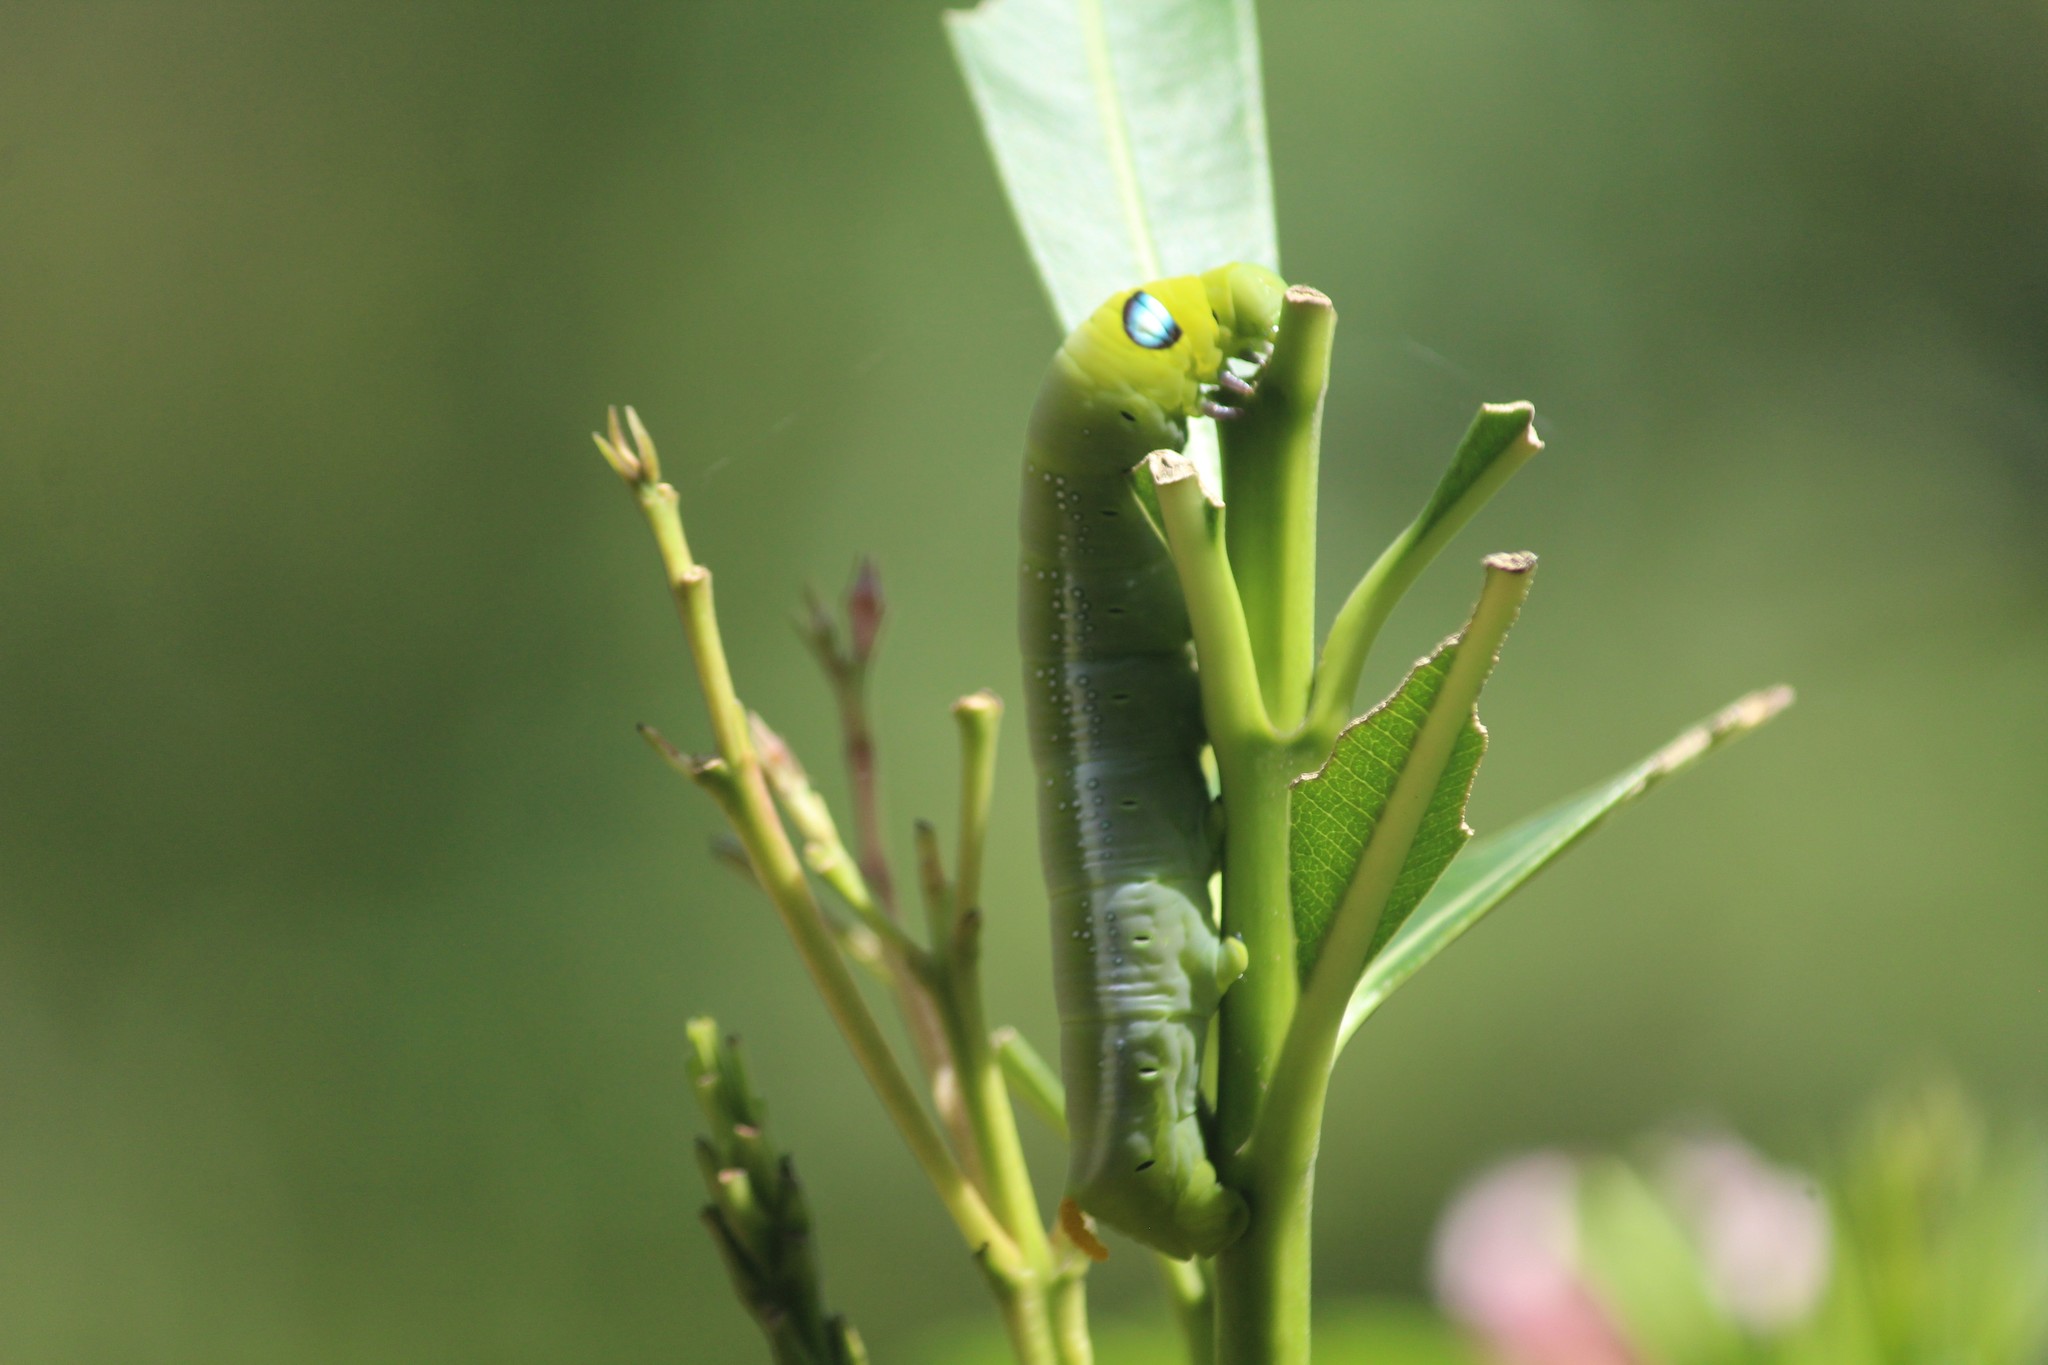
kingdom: Animalia
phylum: Arthropoda
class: Insecta
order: Lepidoptera
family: Sphingidae
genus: Daphnis
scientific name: Daphnis nerii
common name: Oleander hawk-moth
